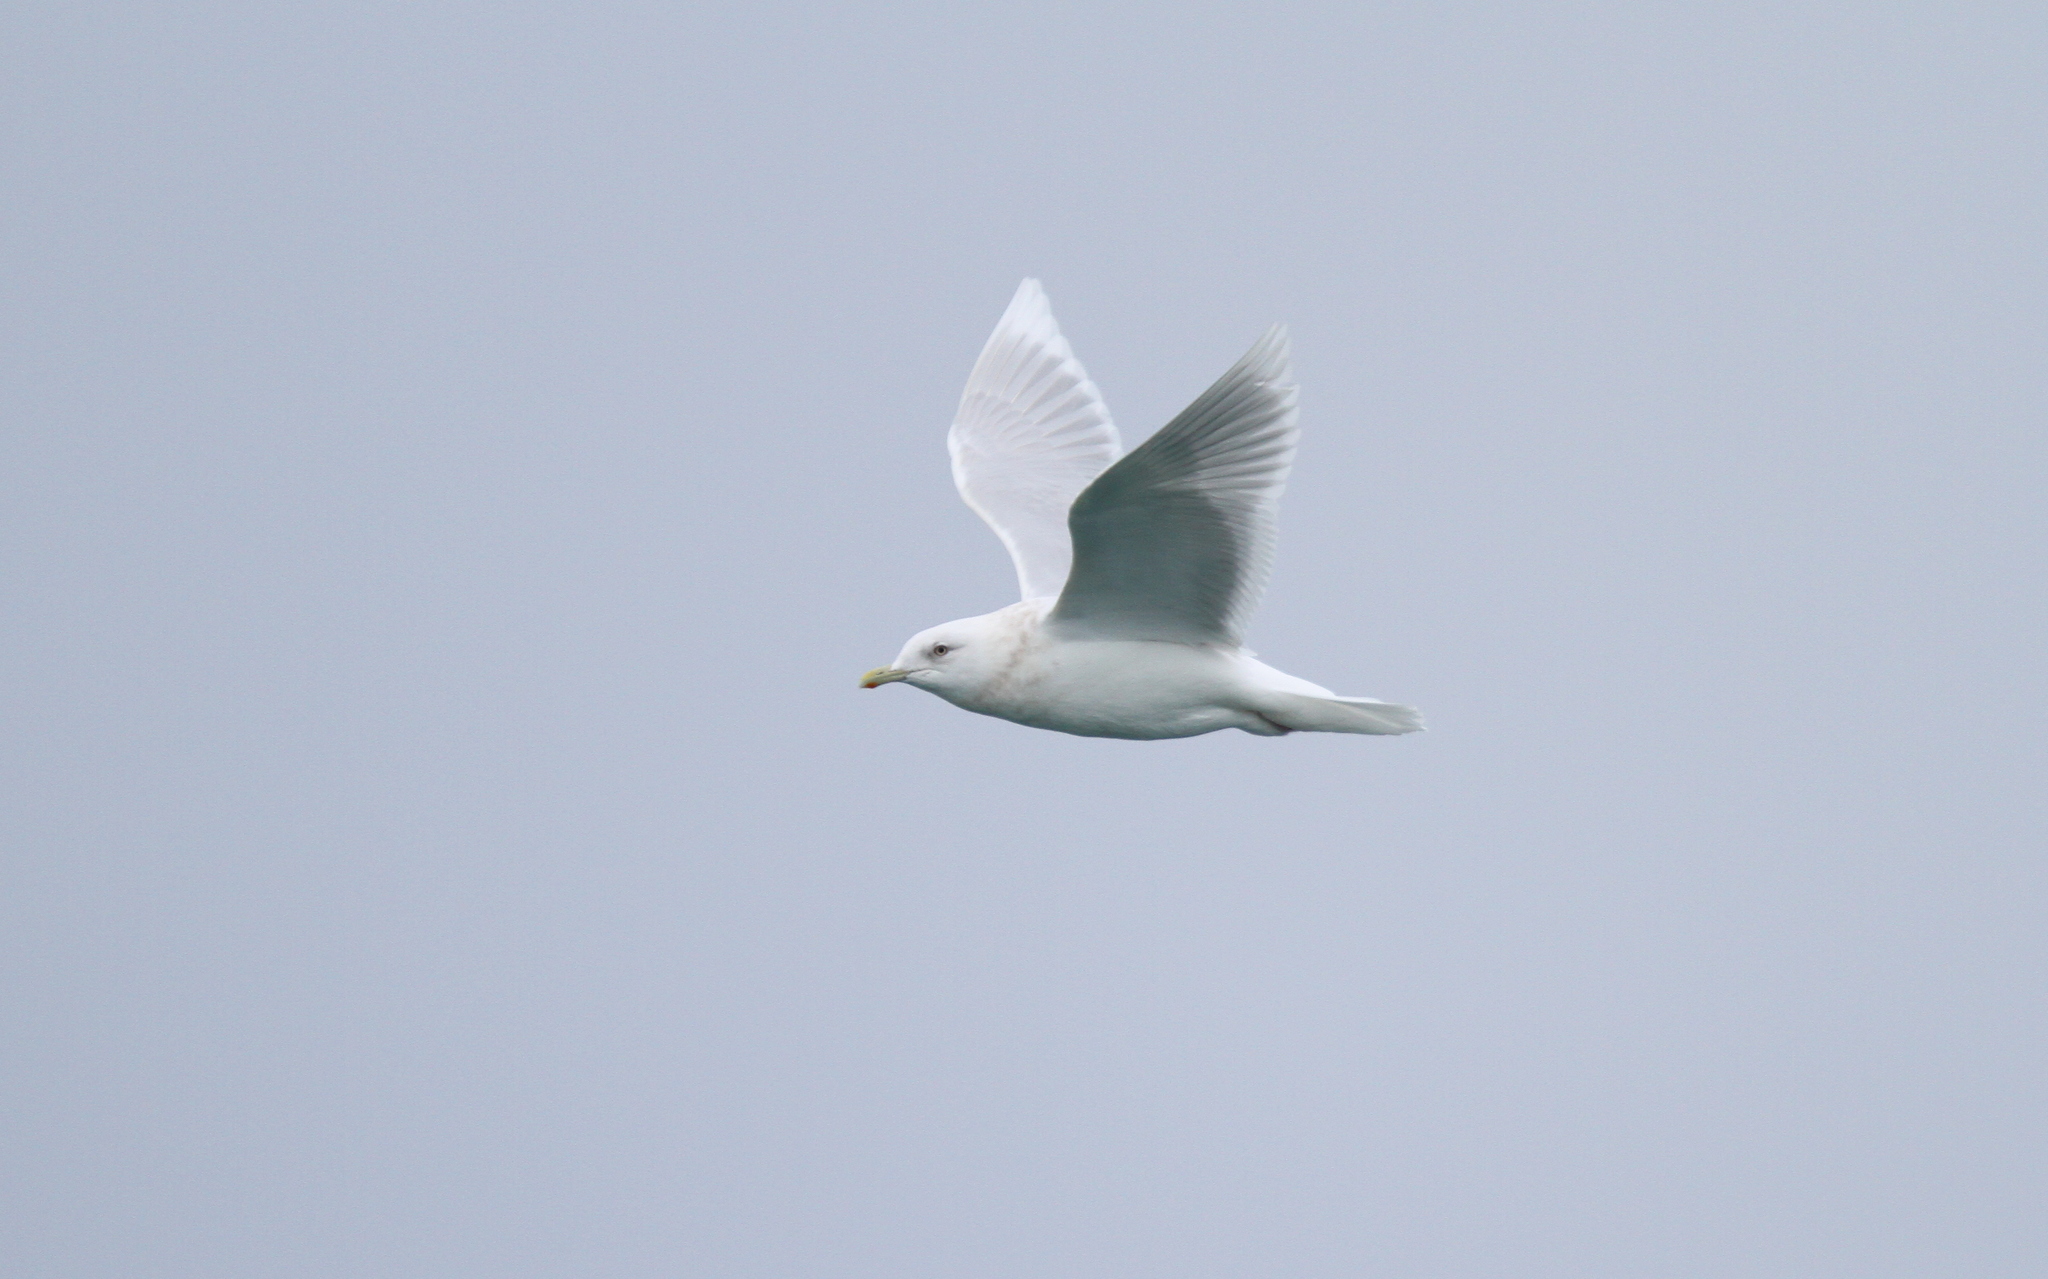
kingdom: Animalia
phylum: Chordata
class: Aves
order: Charadriiformes
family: Laridae
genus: Larus
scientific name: Larus glaucoides
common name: Iceland gull
